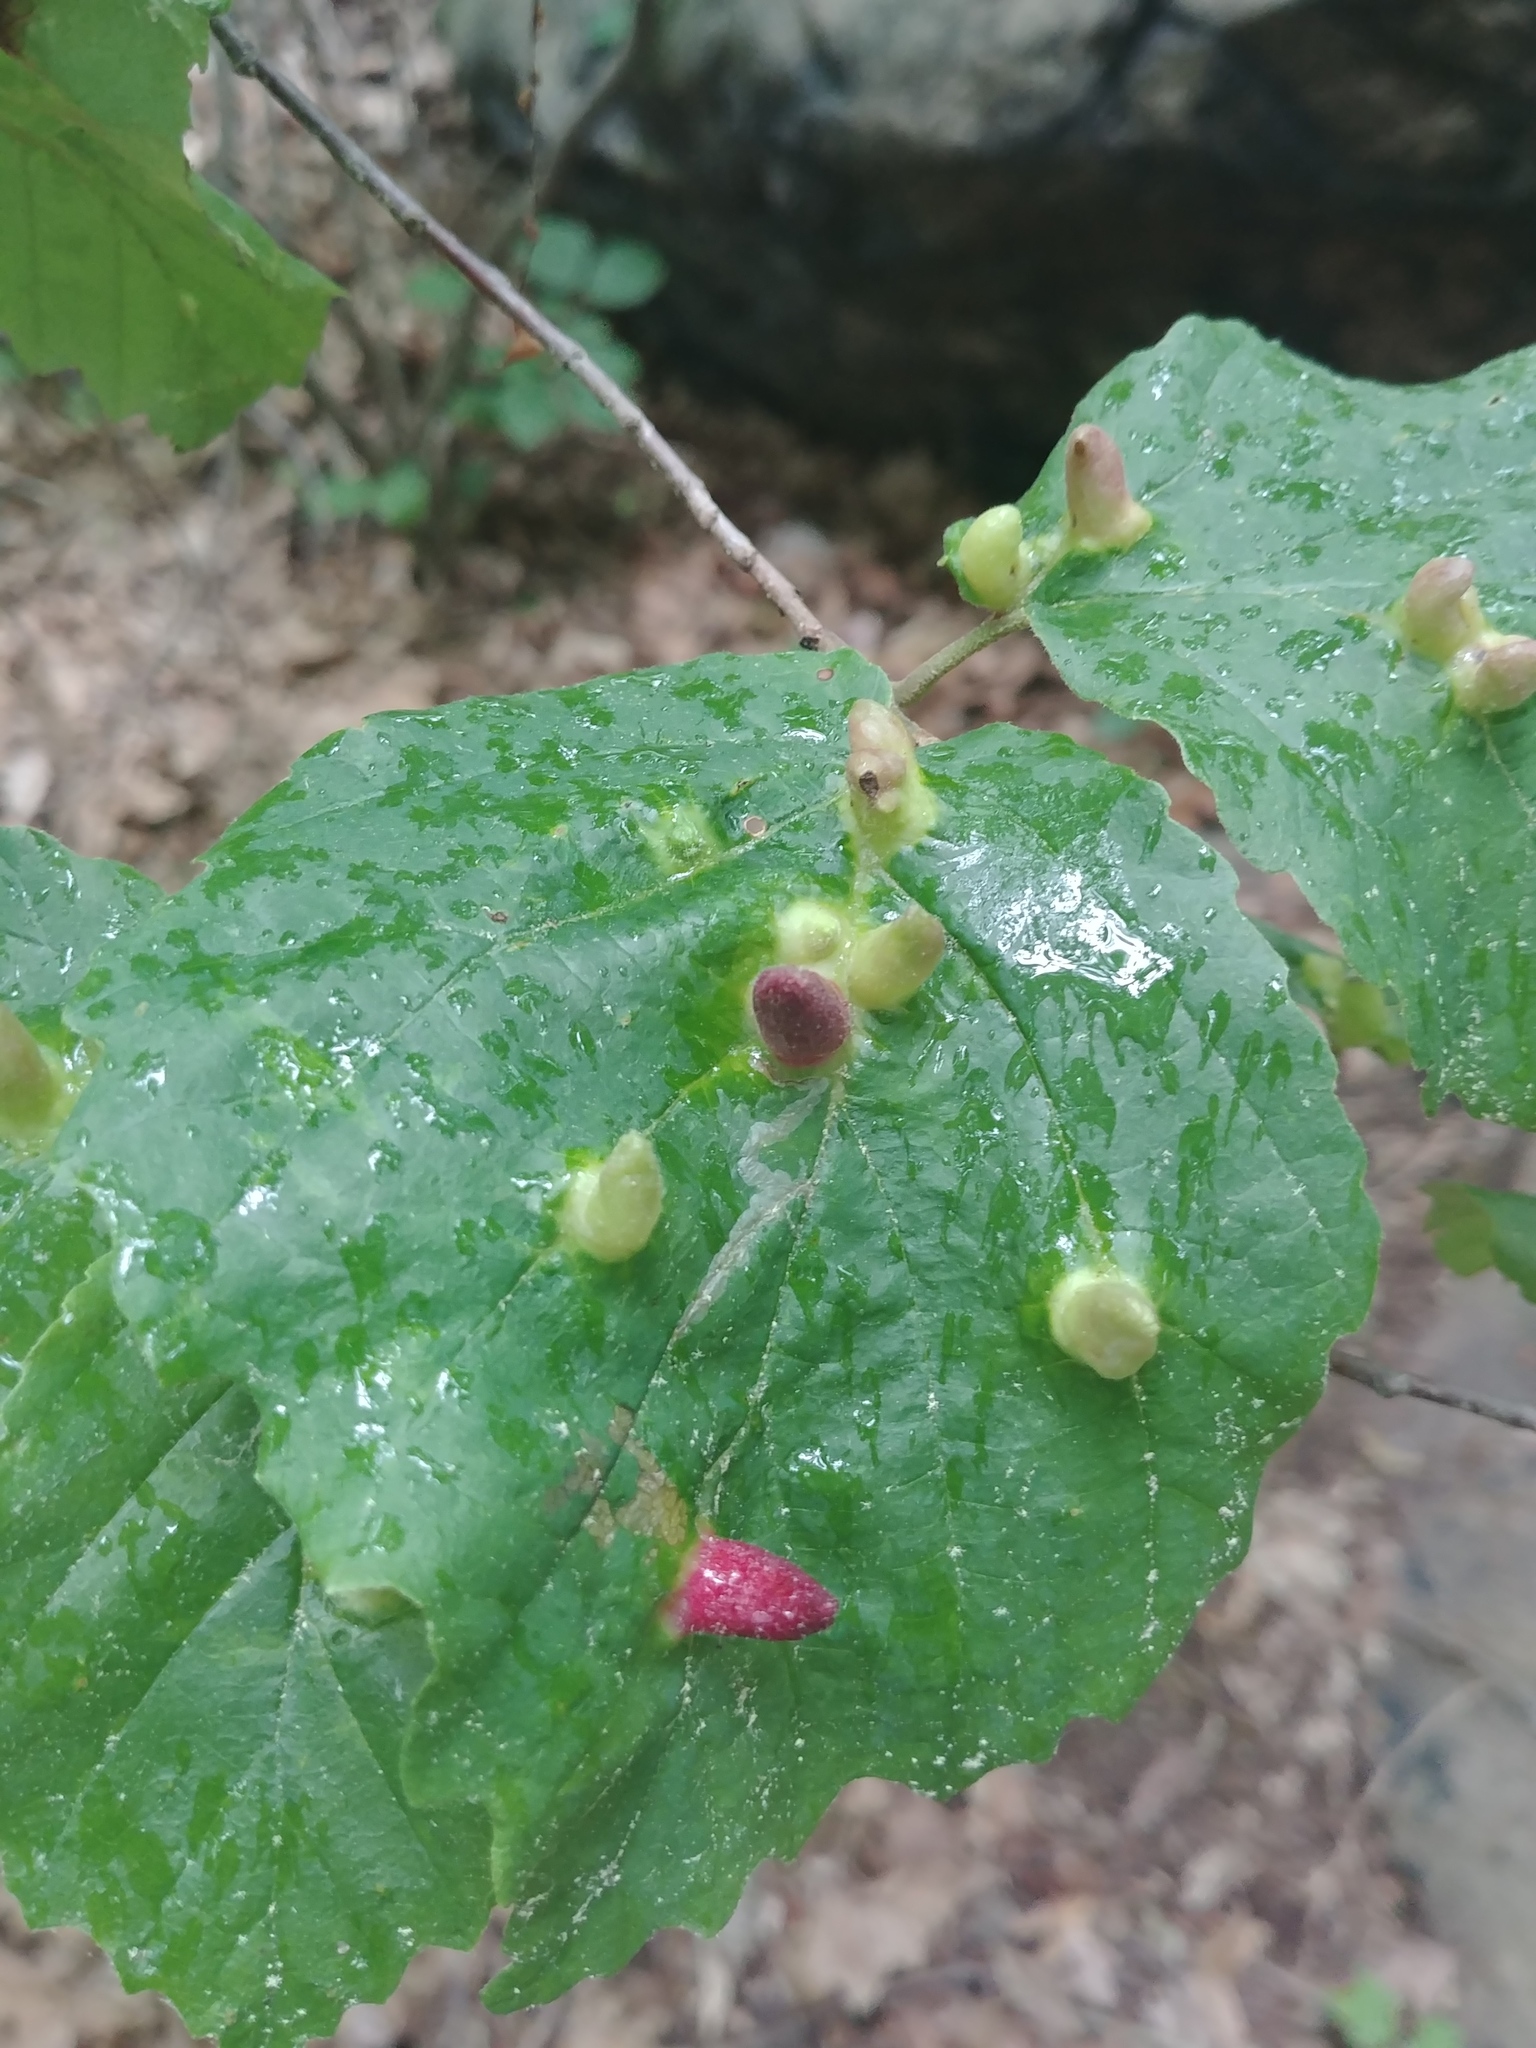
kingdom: Animalia
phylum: Arthropoda
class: Insecta
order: Hemiptera
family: Aphididae
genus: Hormaphis
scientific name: Hormaphis hamamelidis
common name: Witch-hazel cone gall aphid
